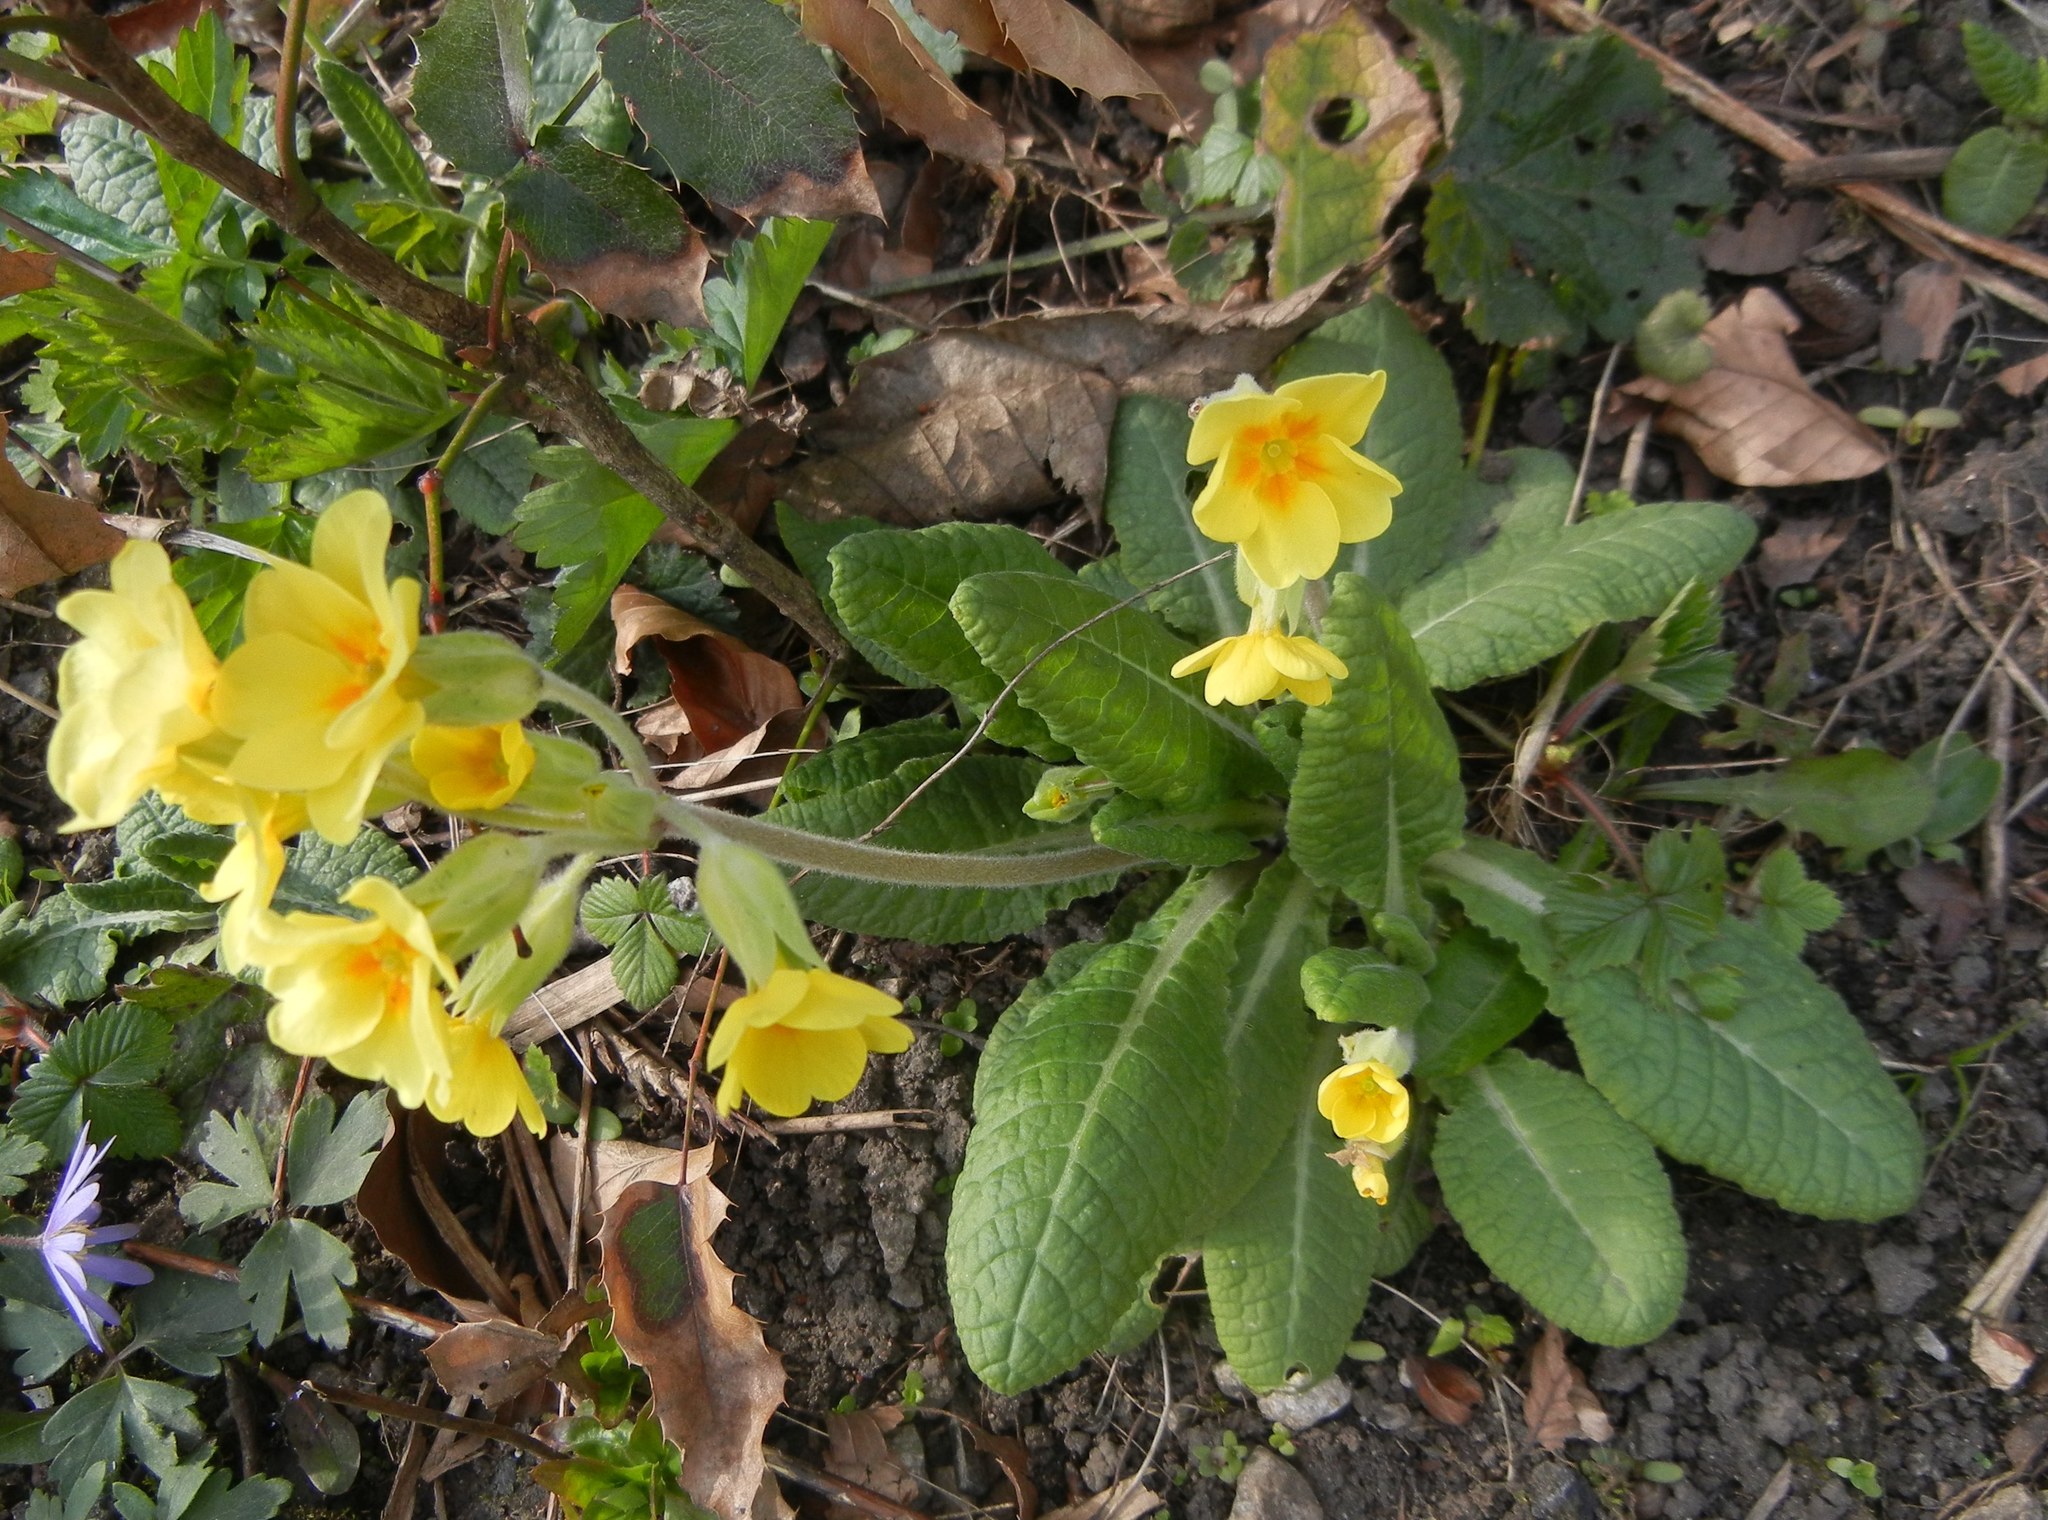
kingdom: Plantae
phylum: Tracheophyta
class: Magnoliopsida
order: Ericales
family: Primulaceae
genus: Primula
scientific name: Primula polyantha
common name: False oxlip
